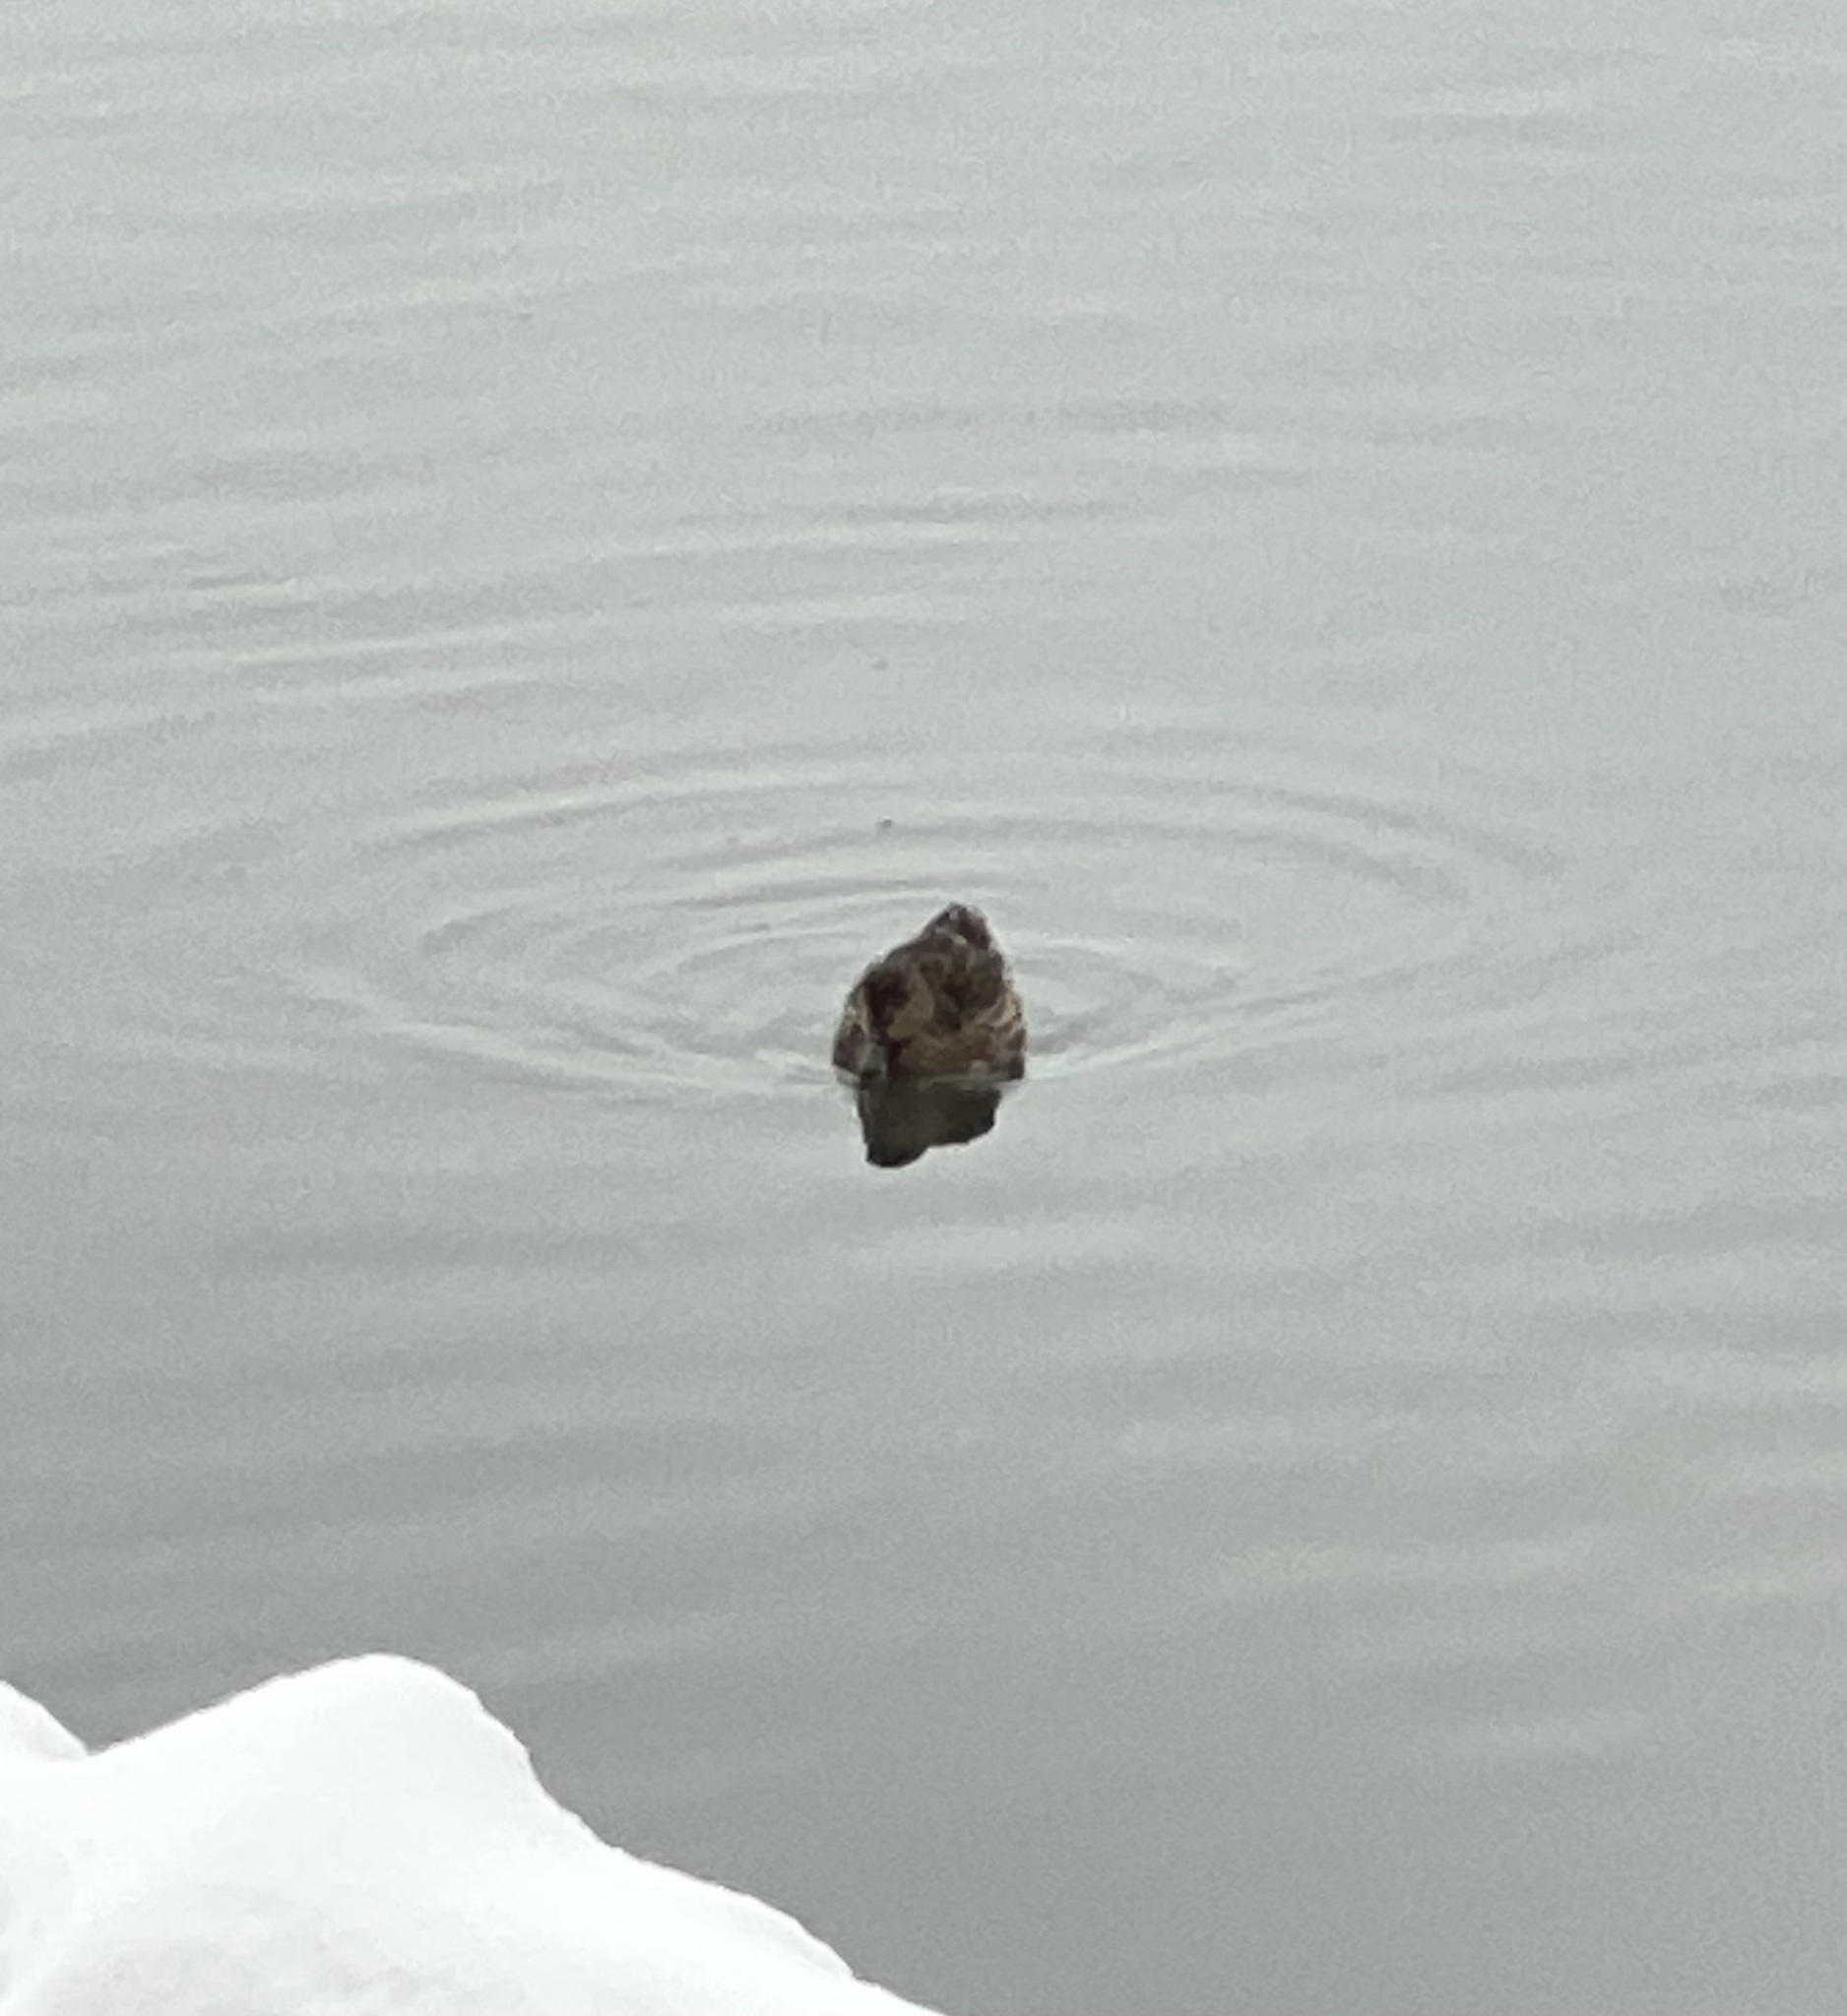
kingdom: Animalia
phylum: Chordata
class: Aves
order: Anseriformes
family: Anatidae
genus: Anas
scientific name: Anas crecca
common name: Eurasian teal
